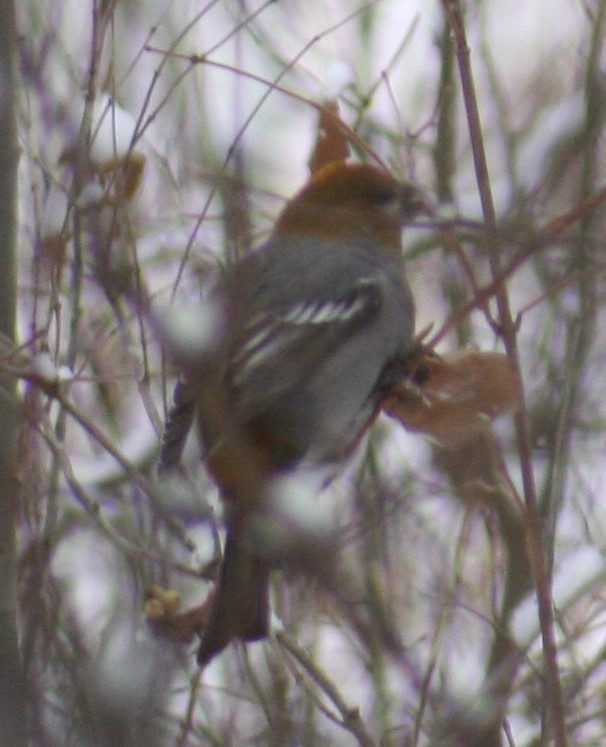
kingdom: Animalia
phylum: Chordata
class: Aves
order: Passeriformes
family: Fringillidae
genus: Pinicola
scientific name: Pinicola enucleator
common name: Pine grosbeak
